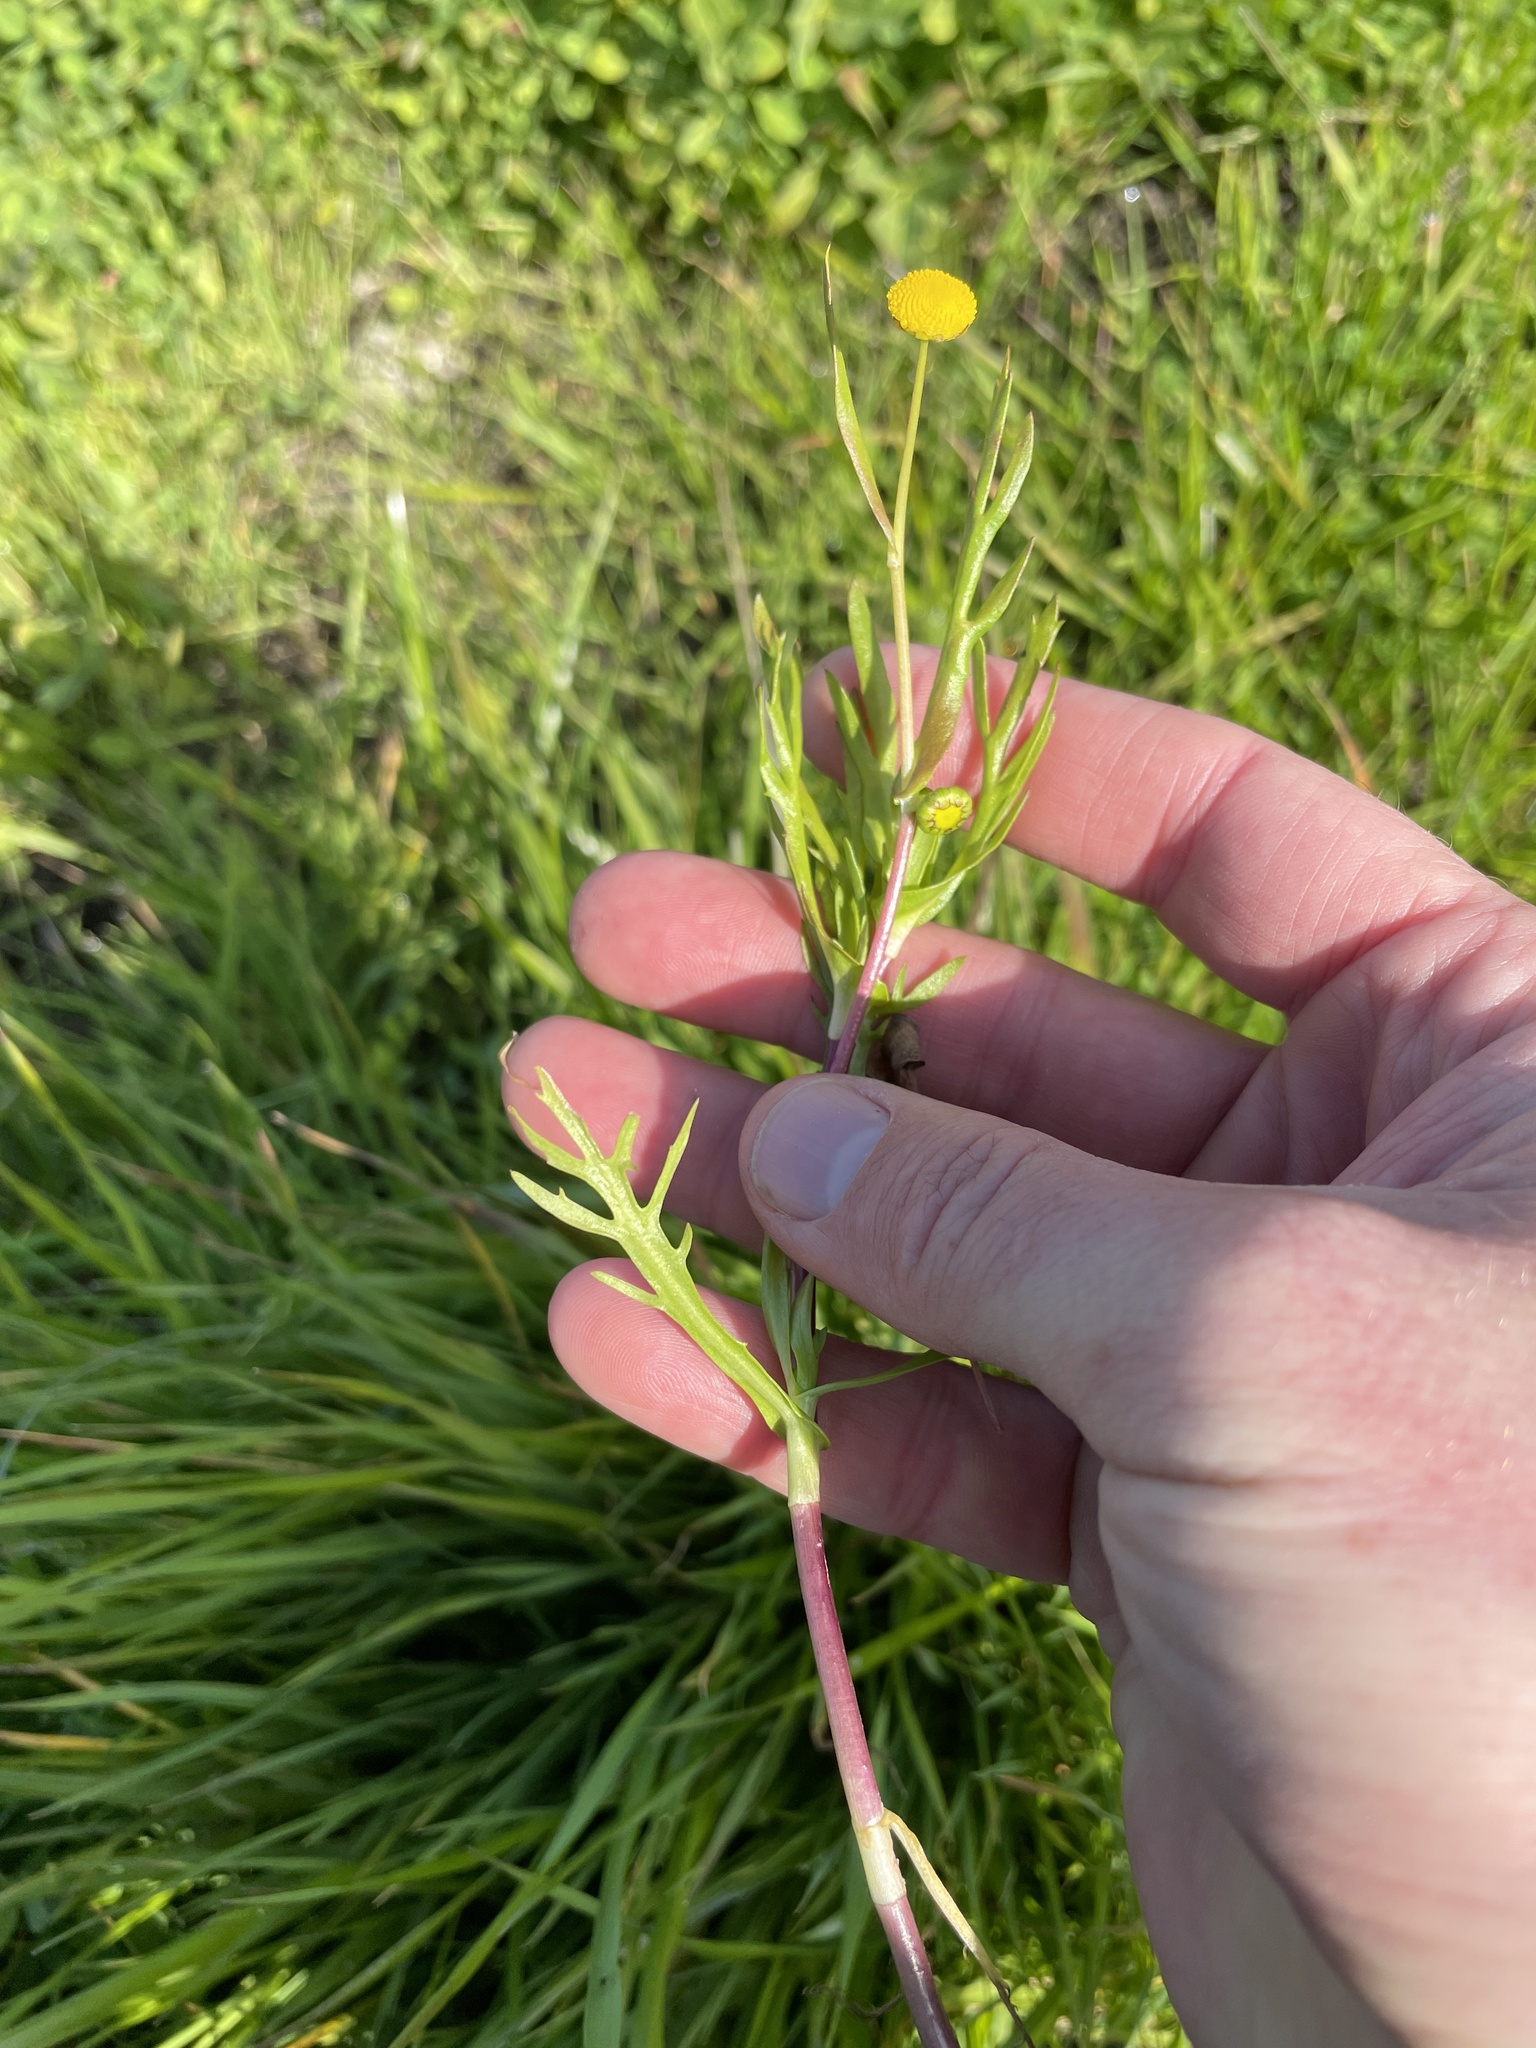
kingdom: Plantae
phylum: Tracheophyta
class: Magnoliopsida
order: Asterales
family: Asteraceae
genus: Cotula
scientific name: Cotula coronopifolia
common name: Buttonweed
